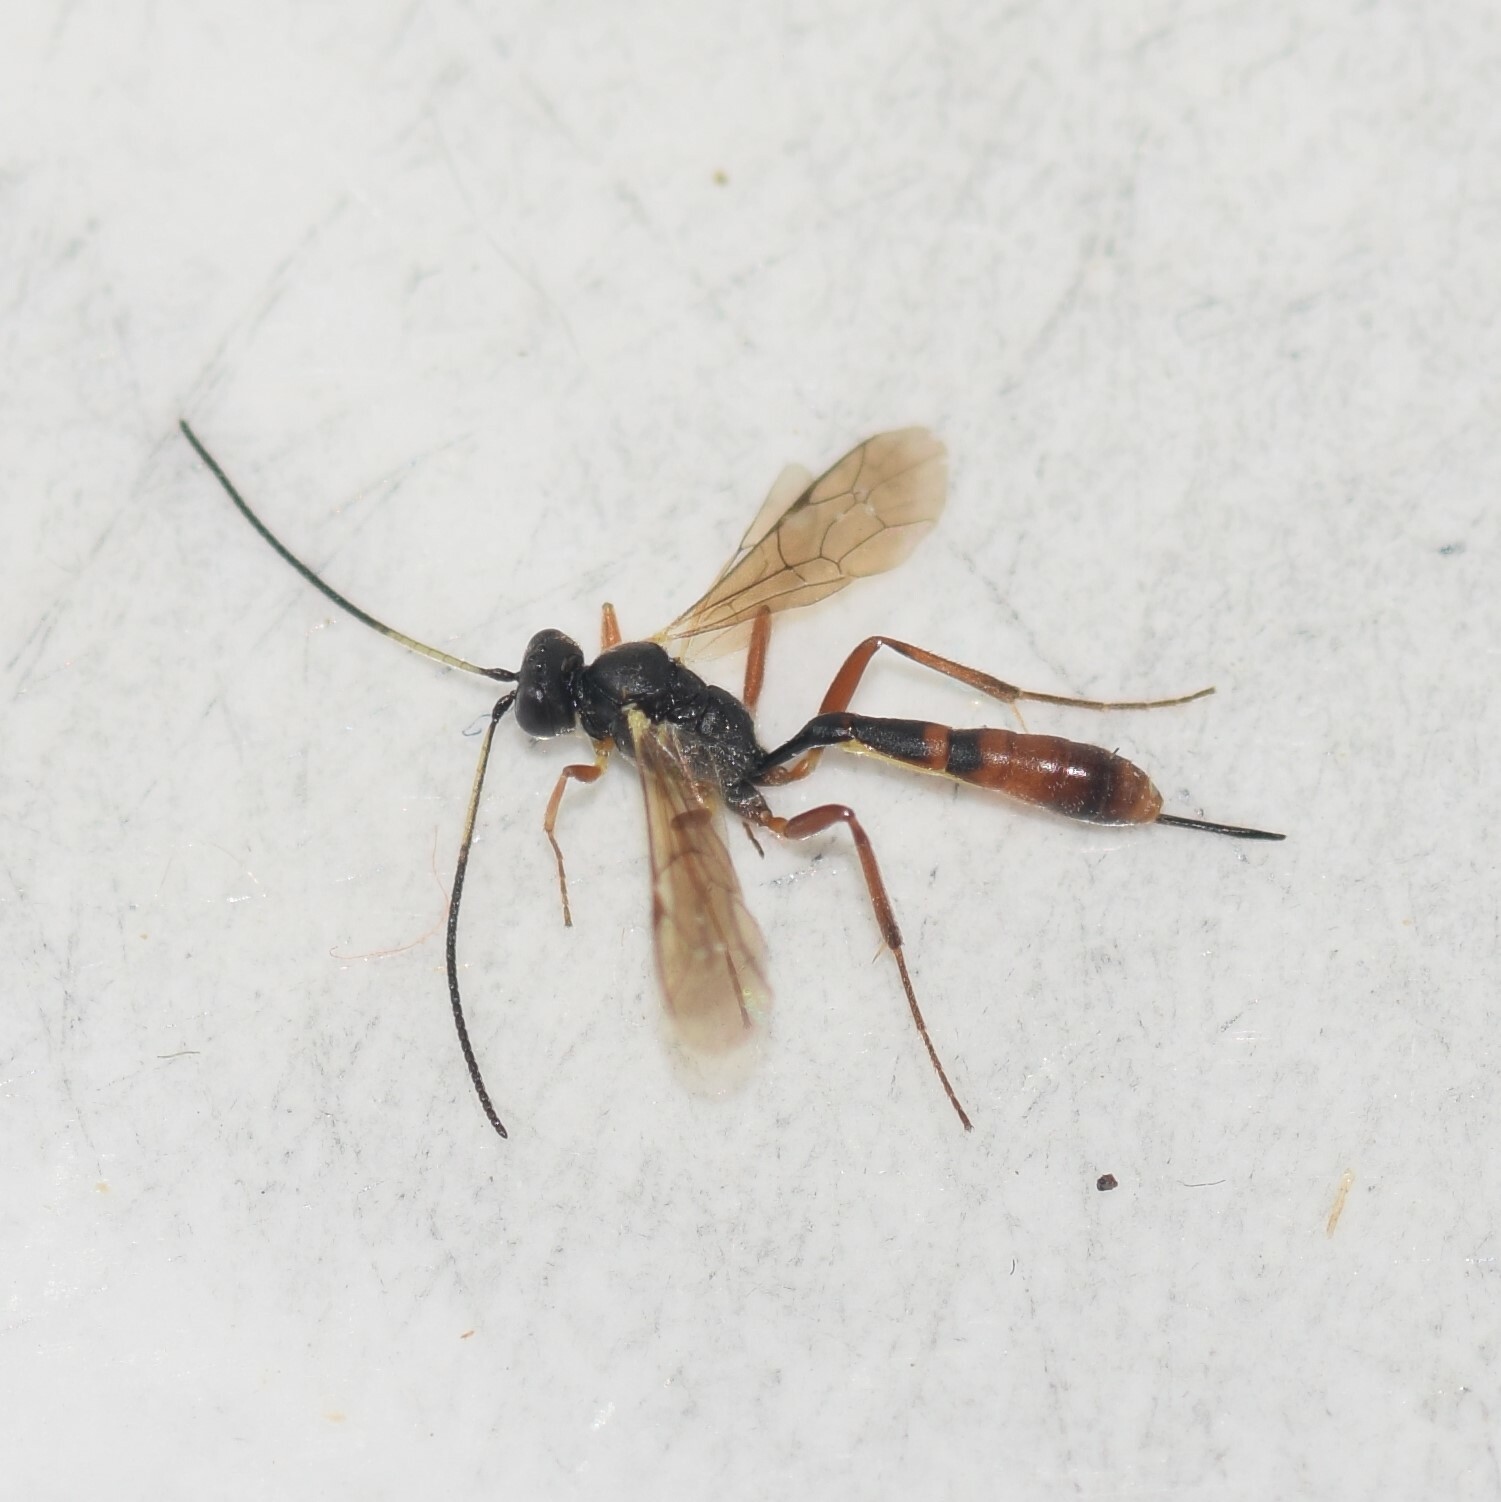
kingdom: Animalia
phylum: Arthropoda
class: Insecta
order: Hymenoptera
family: Ichneumonidae
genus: Cymodusa
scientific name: Cymodusa distincta
